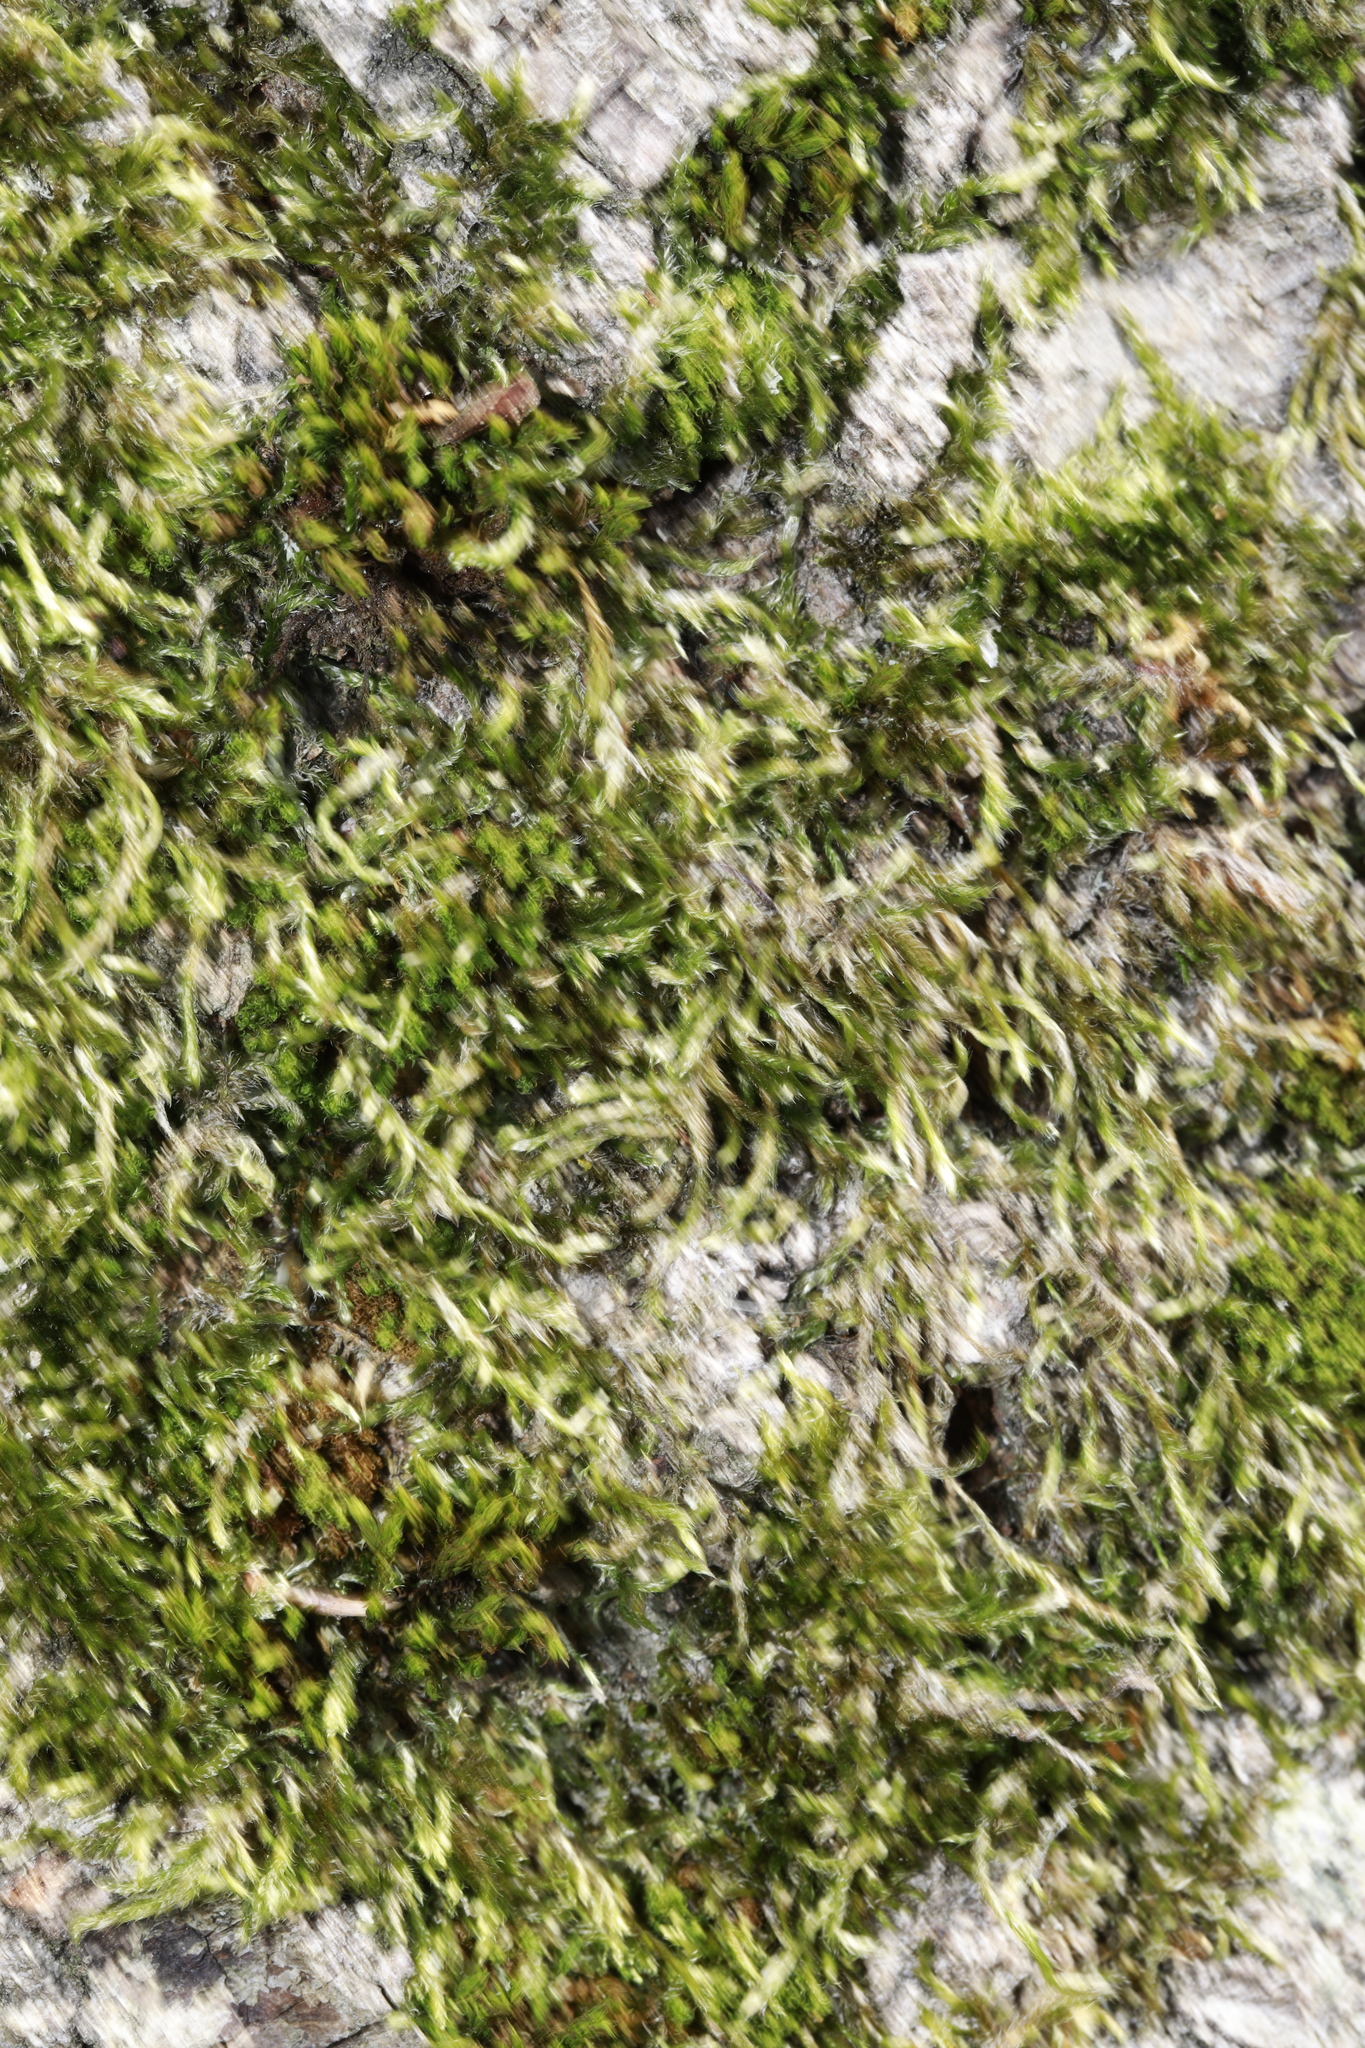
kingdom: Plantae
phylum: Bryophyta
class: Bryopsida
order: Hypnales
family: Brachytheciaceae
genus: Homalothecium
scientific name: Homalothecium sericeum
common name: Silky wall feather-moss
